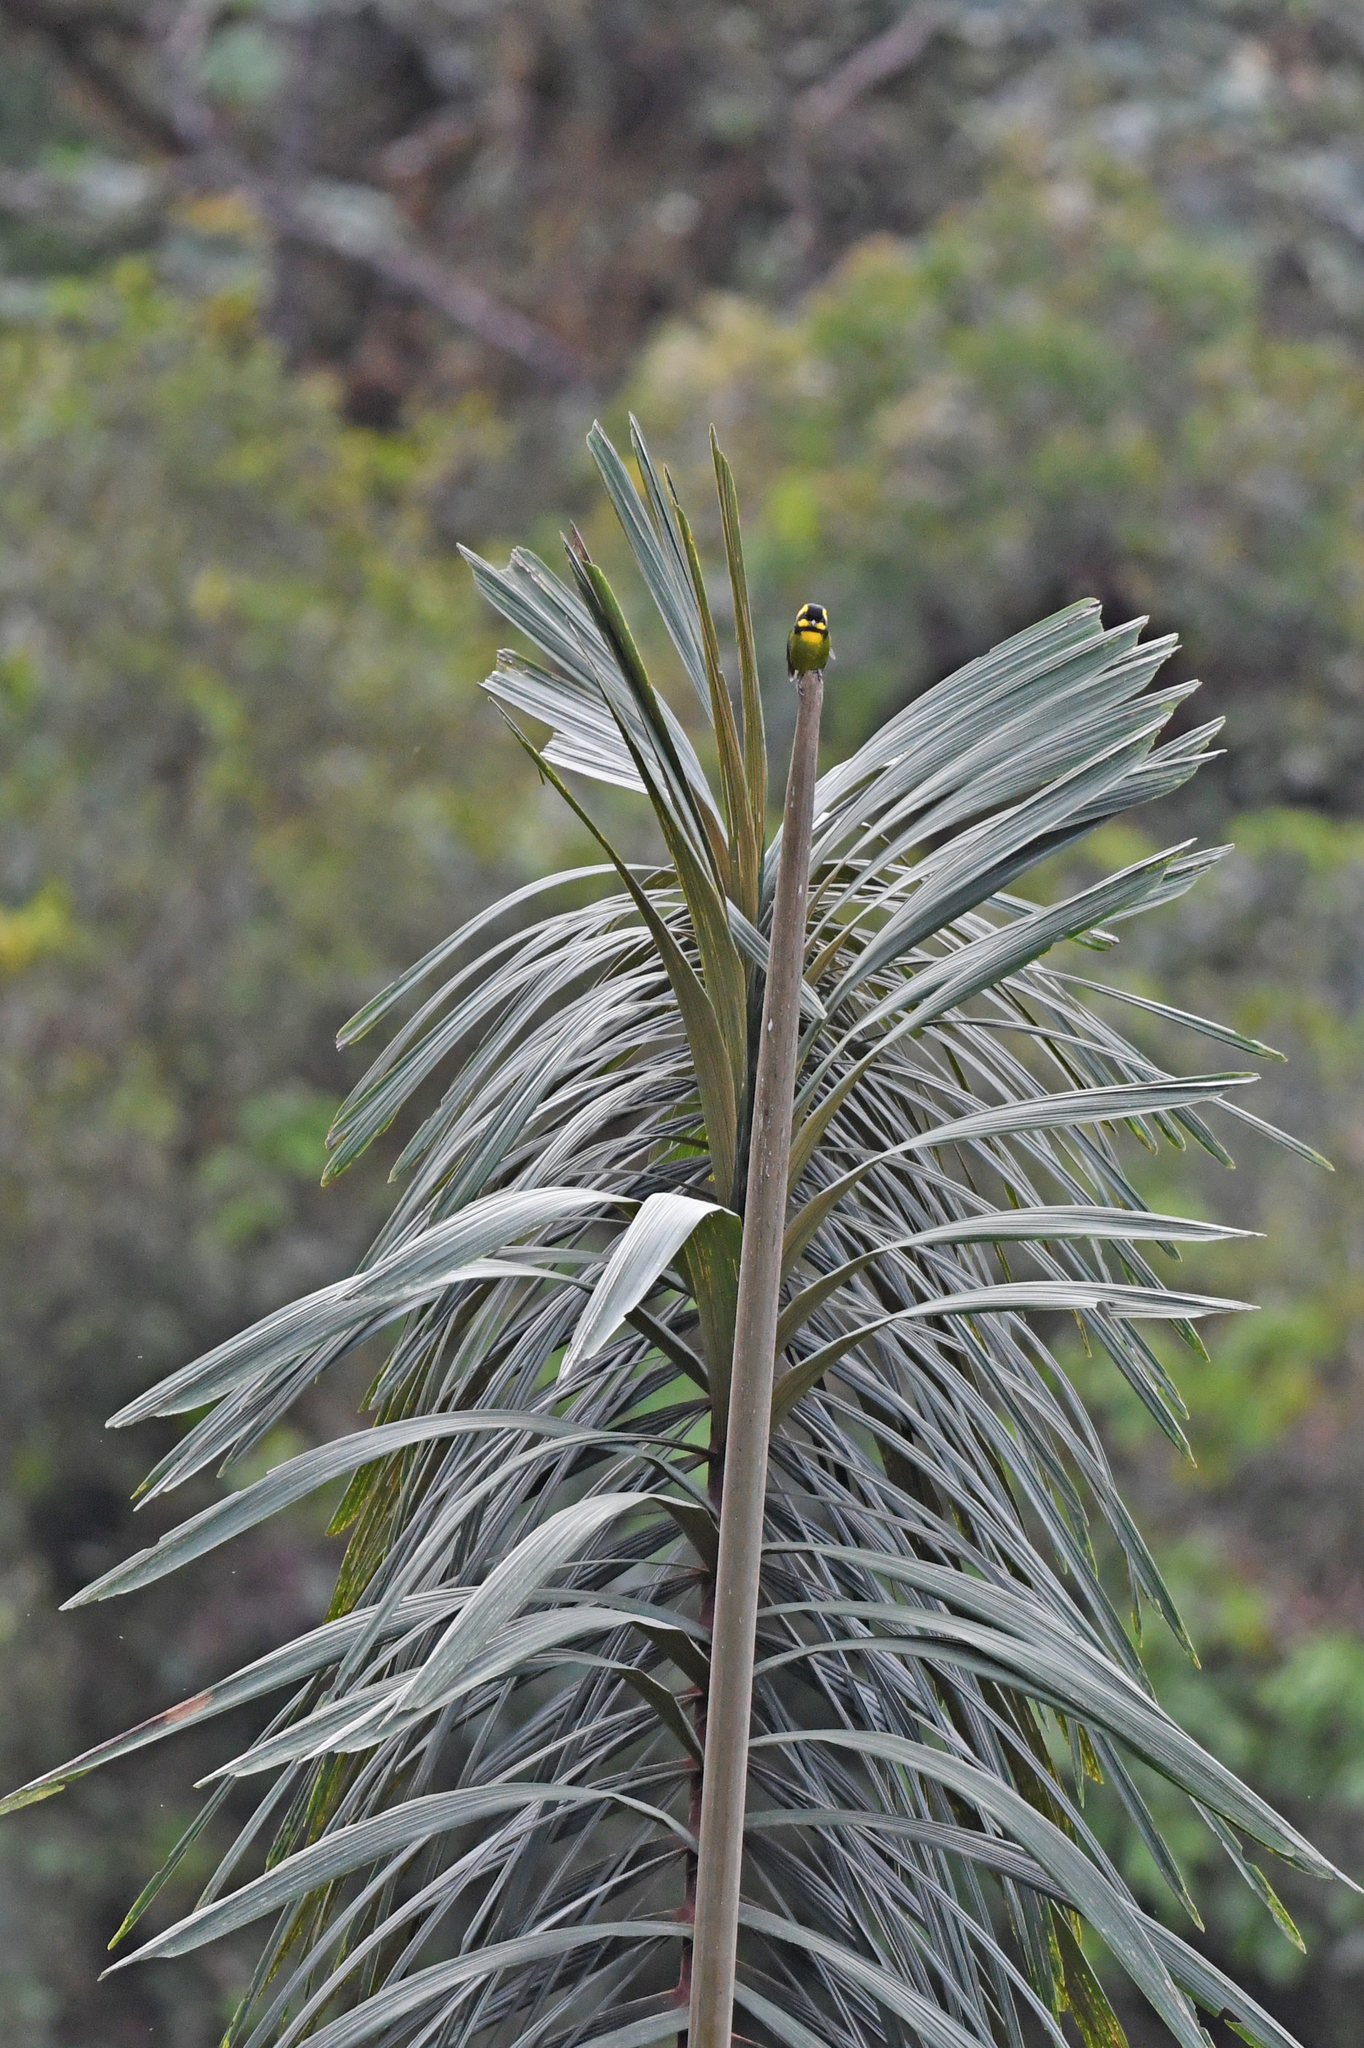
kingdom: Animalia
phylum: Chordata
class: Aves
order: Passeriformes
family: Thraupidae
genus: Bangsia
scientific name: Bangsia aureocincta
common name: Gold-ringed tanager
